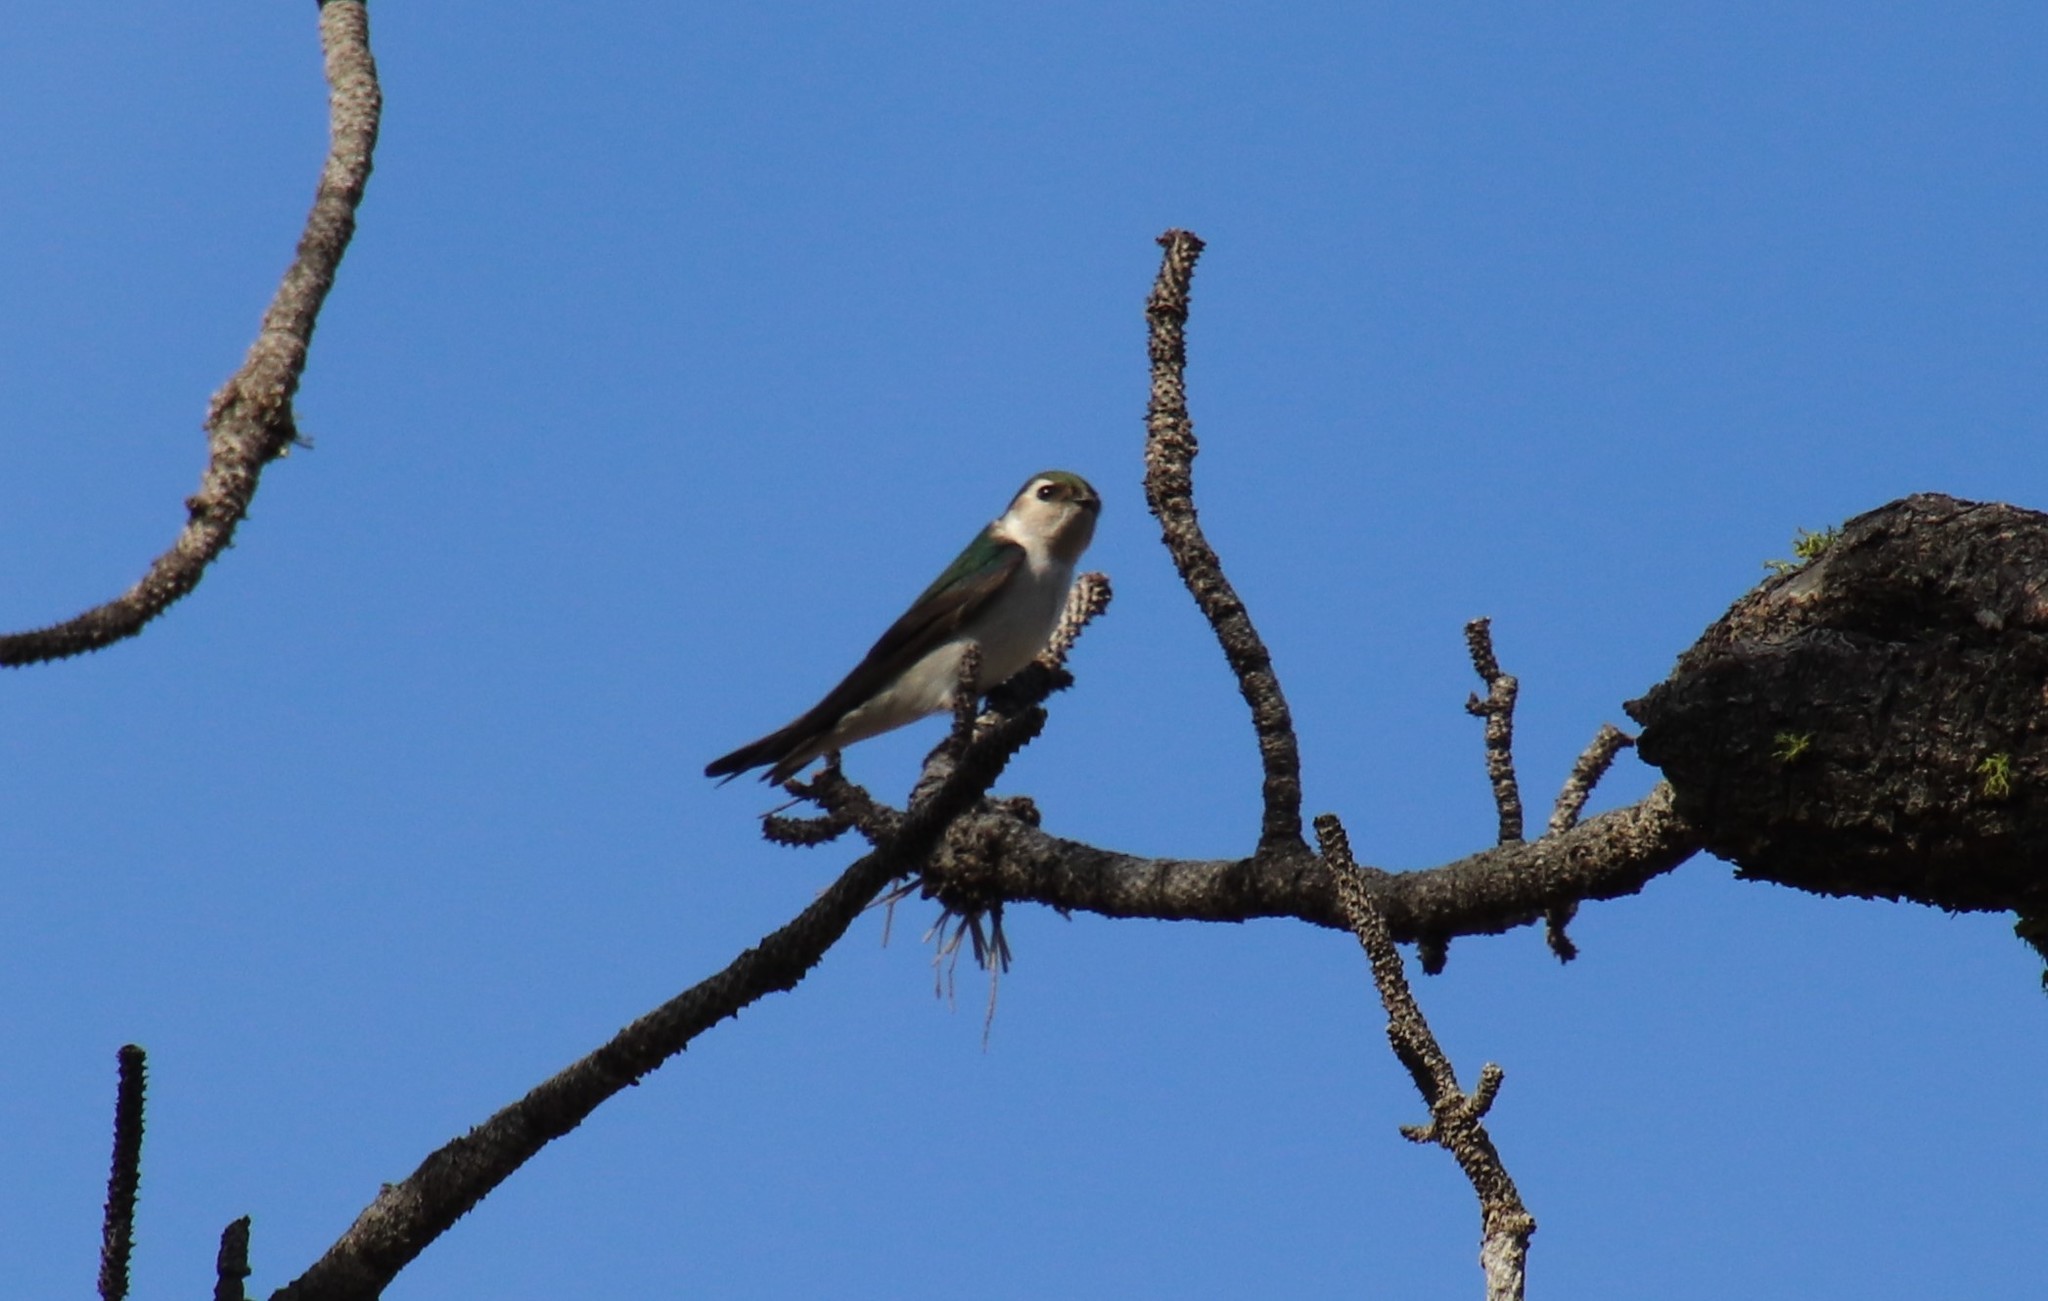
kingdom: Animalia
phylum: Chordata
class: Aves
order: Passeriformes
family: Hirundinidae
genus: Tachycineta
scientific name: Tachycineta thalassina
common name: Violet-green swallow
